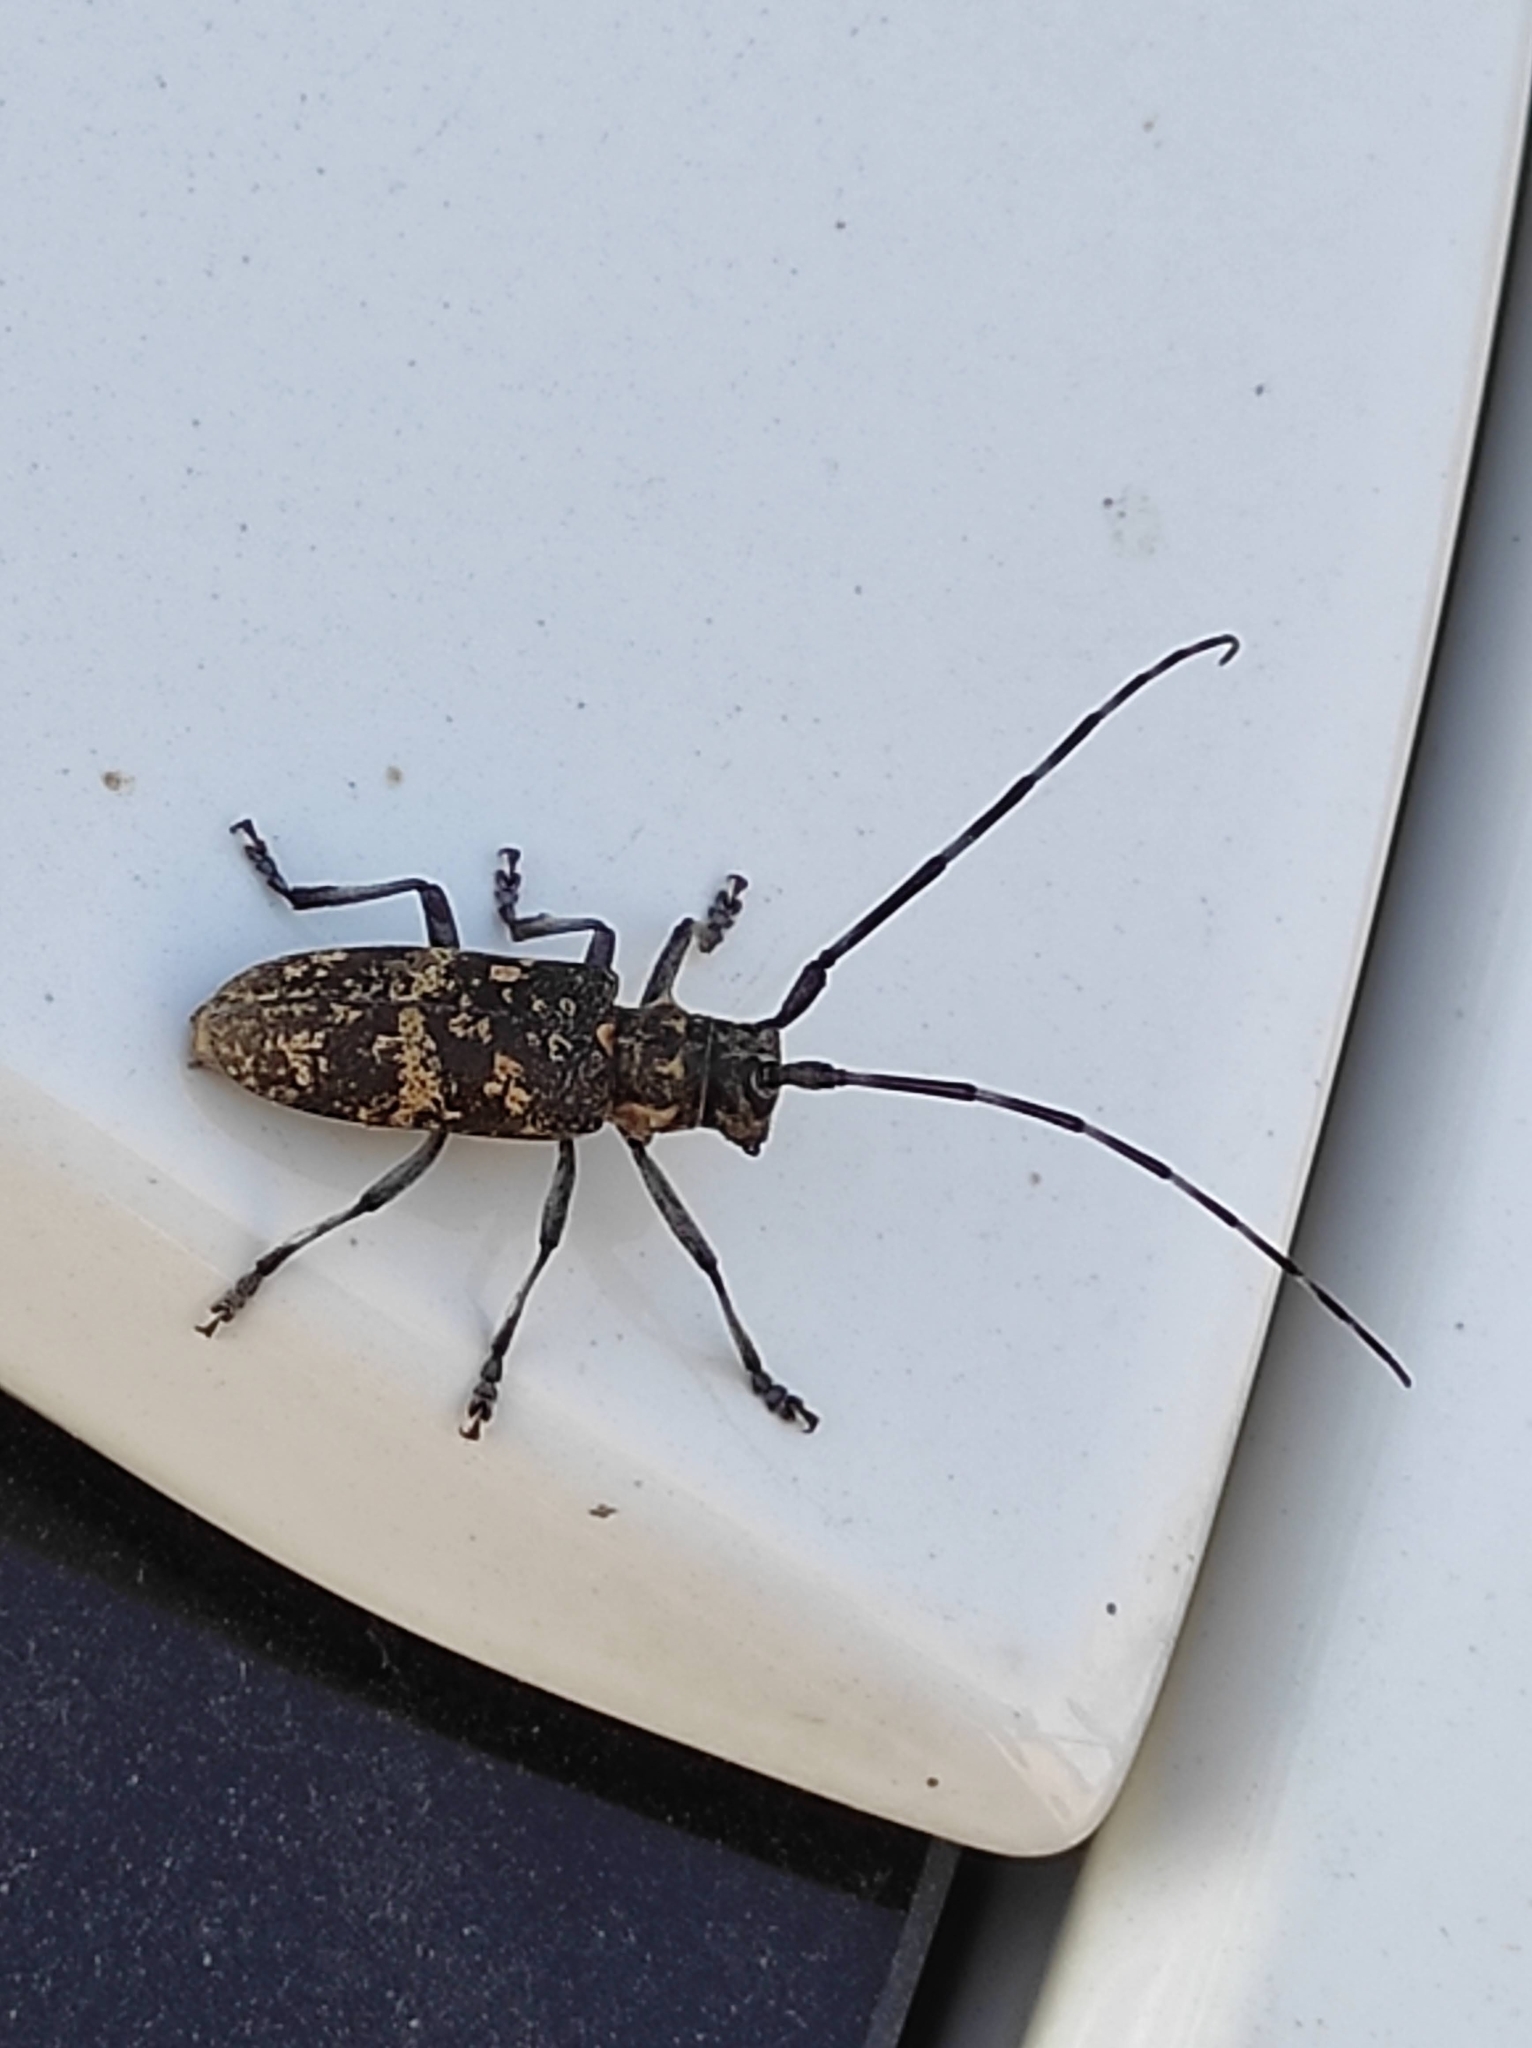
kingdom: Animalia
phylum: Arthropoda
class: Insecta
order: Coleoptera
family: Cerambycidae
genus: Monochamus
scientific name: Monochamus galloprovincialis
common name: Pine sawyer
